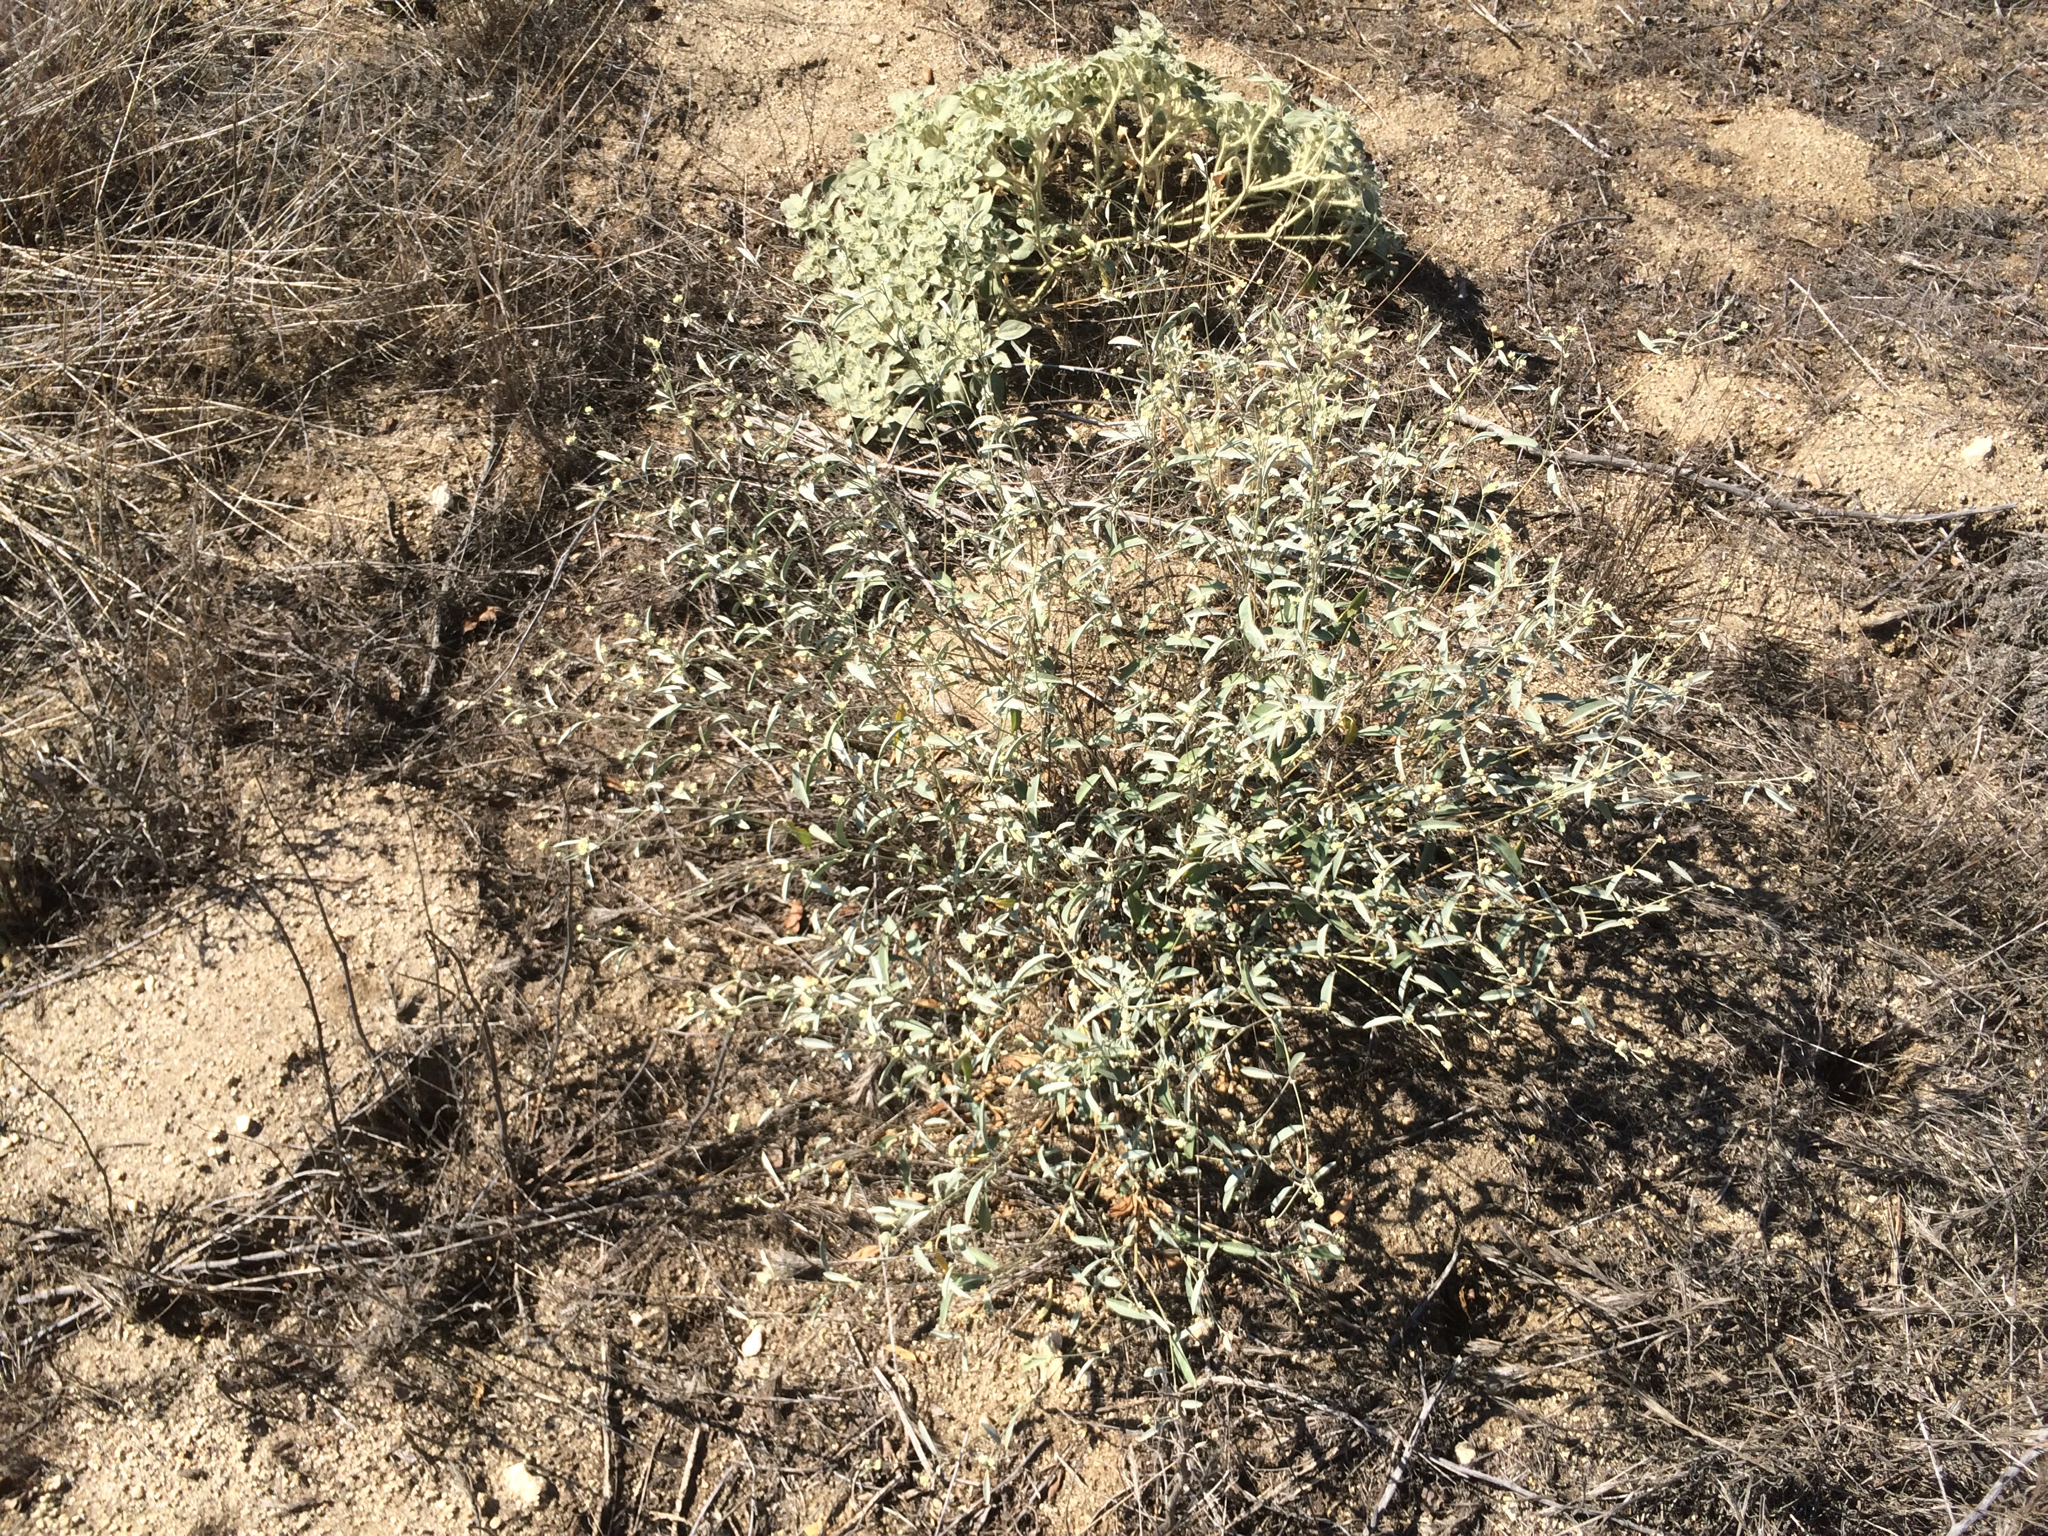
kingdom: Plantae
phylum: Tracheophyta
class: Magnoliopsida
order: Malpighiales
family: Euphorbiaceae
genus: Croton
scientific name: Croton californicus
